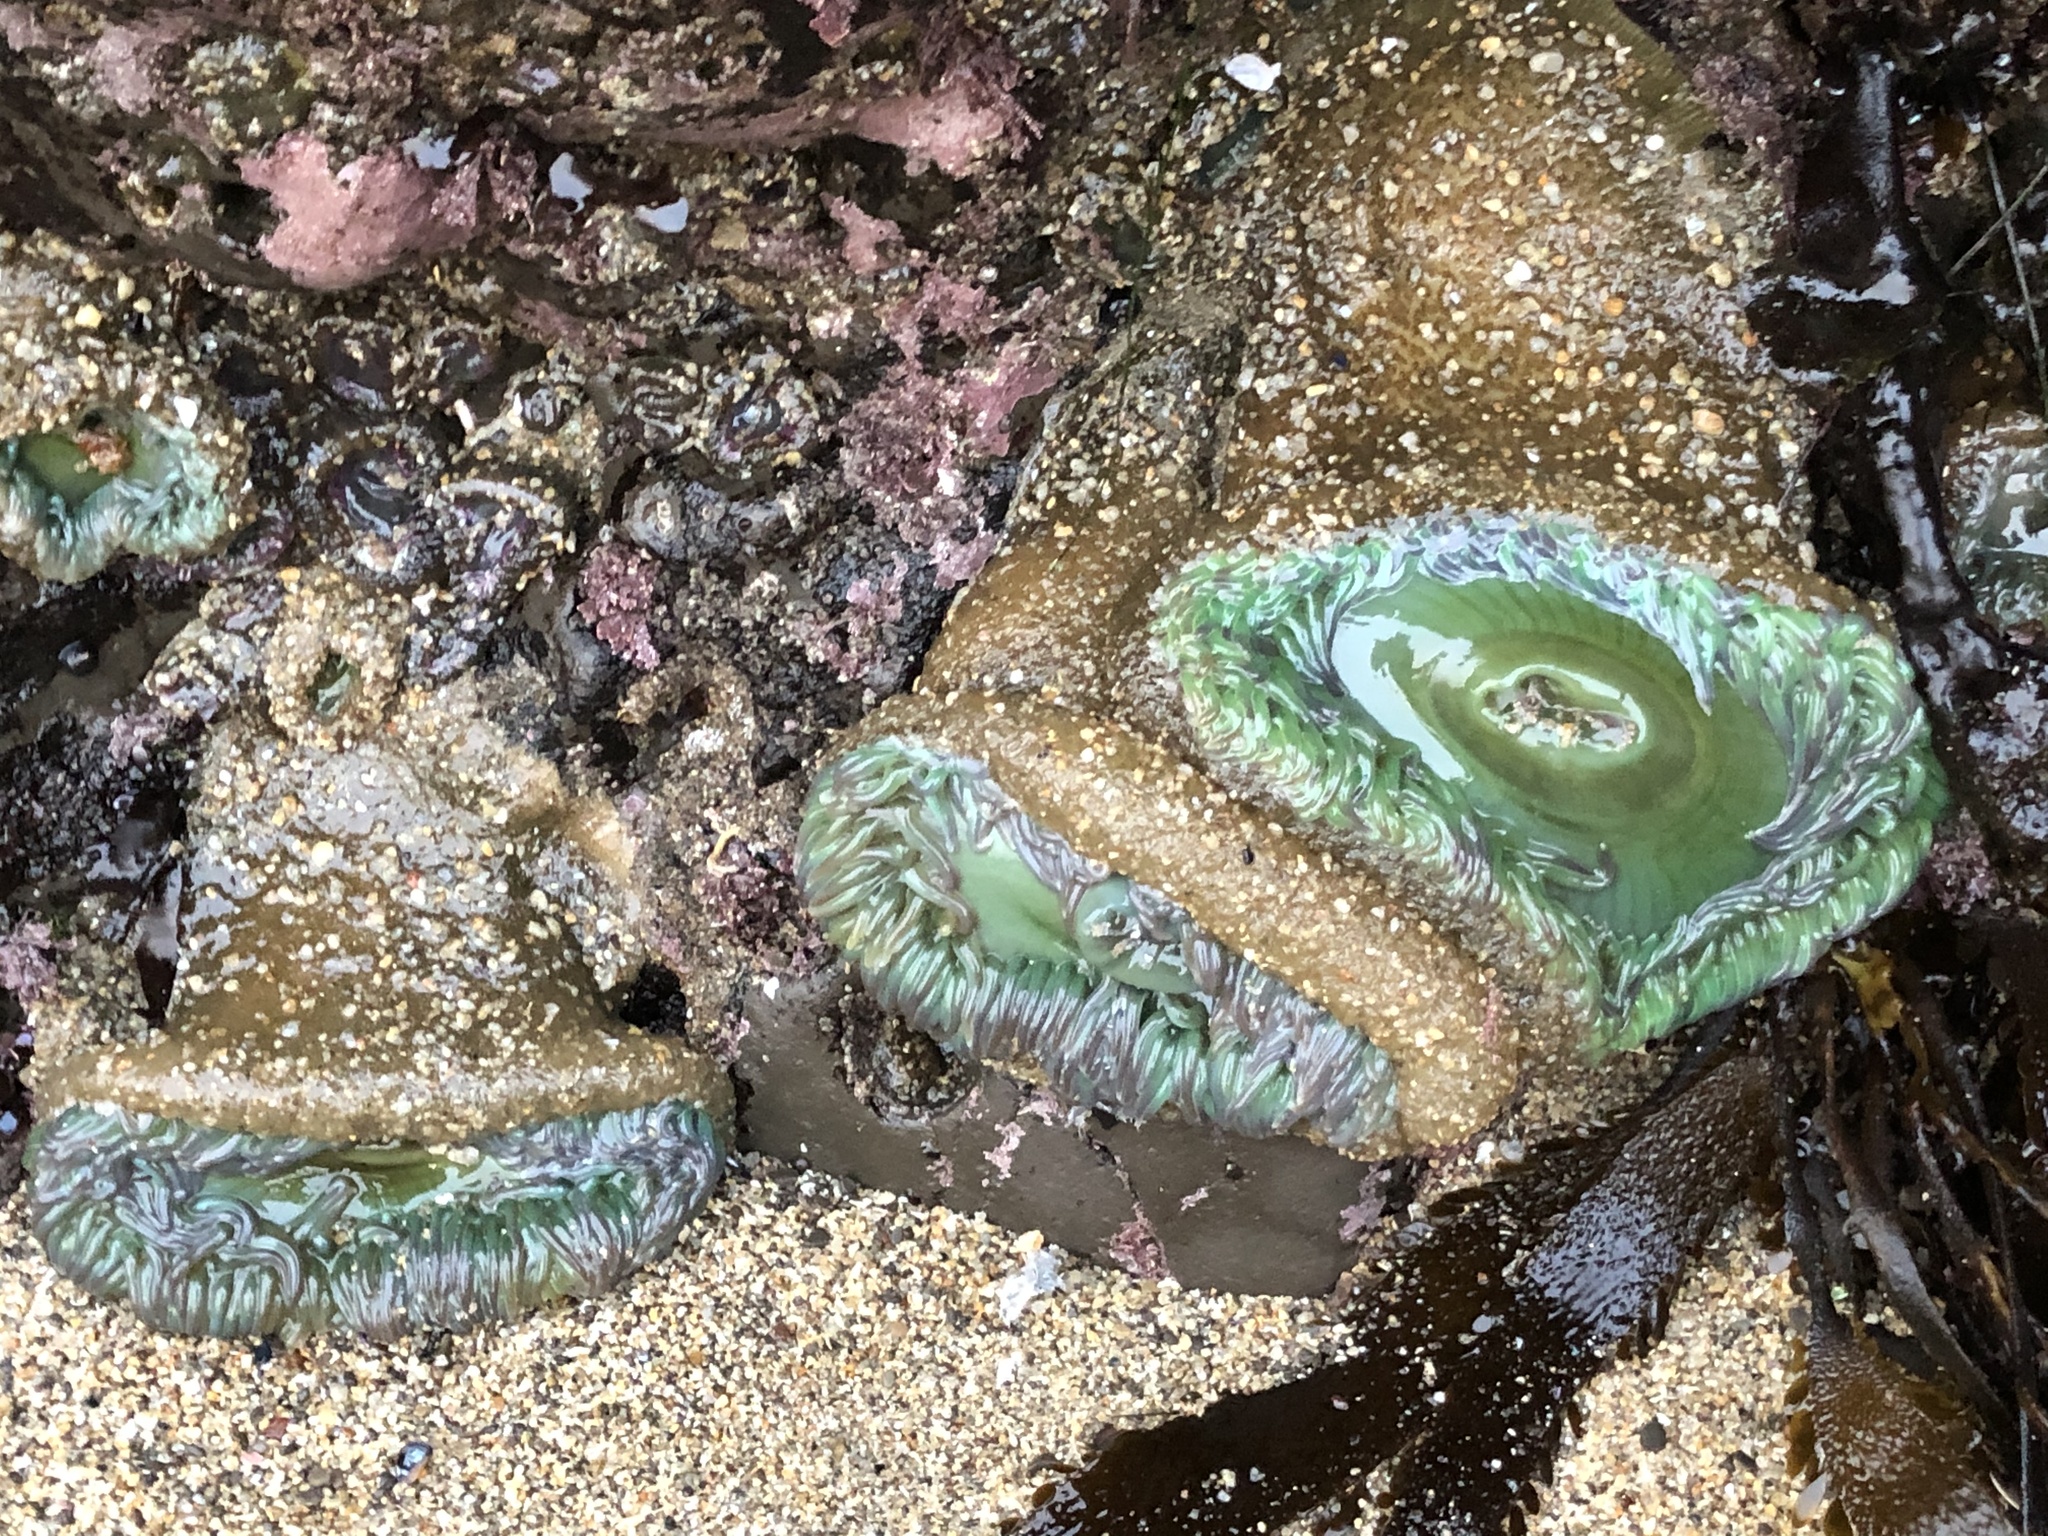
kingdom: Animalia
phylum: Cnidaria
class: Anthozoa
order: Actiniaria
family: Actiniidae
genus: Anthopleura
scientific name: Anthopleura xanthogrammica
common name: Giant green anemone
